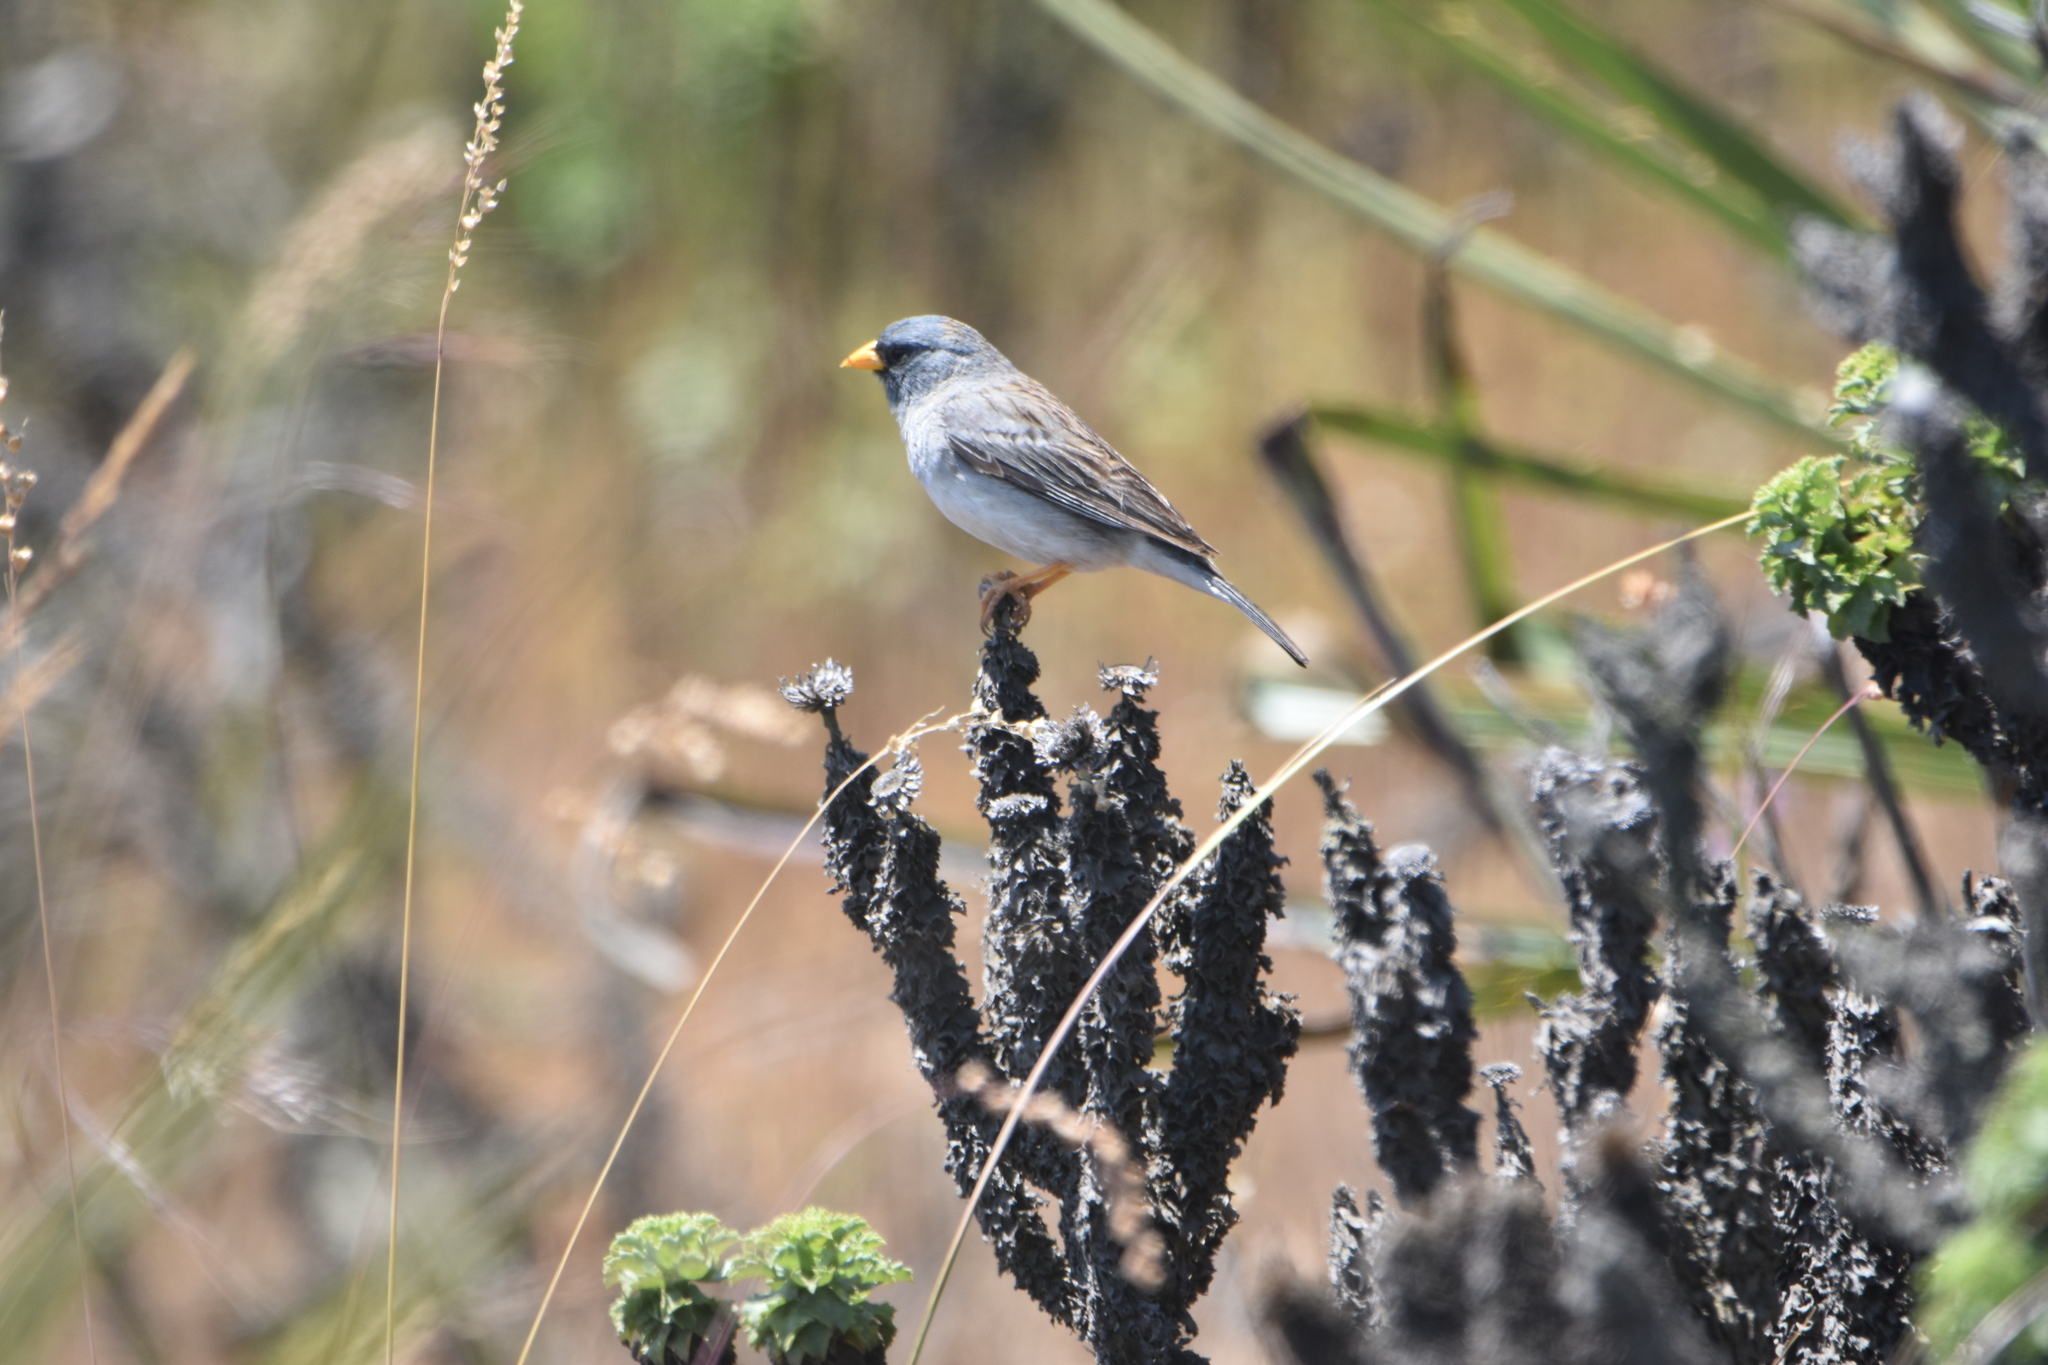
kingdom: Animalia
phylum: Chordata
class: Aves
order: Passeriformes
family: Thraupidae
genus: Porphyrospiza
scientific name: Porphyrospiza alaudina
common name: Band-tailed sierra finch
